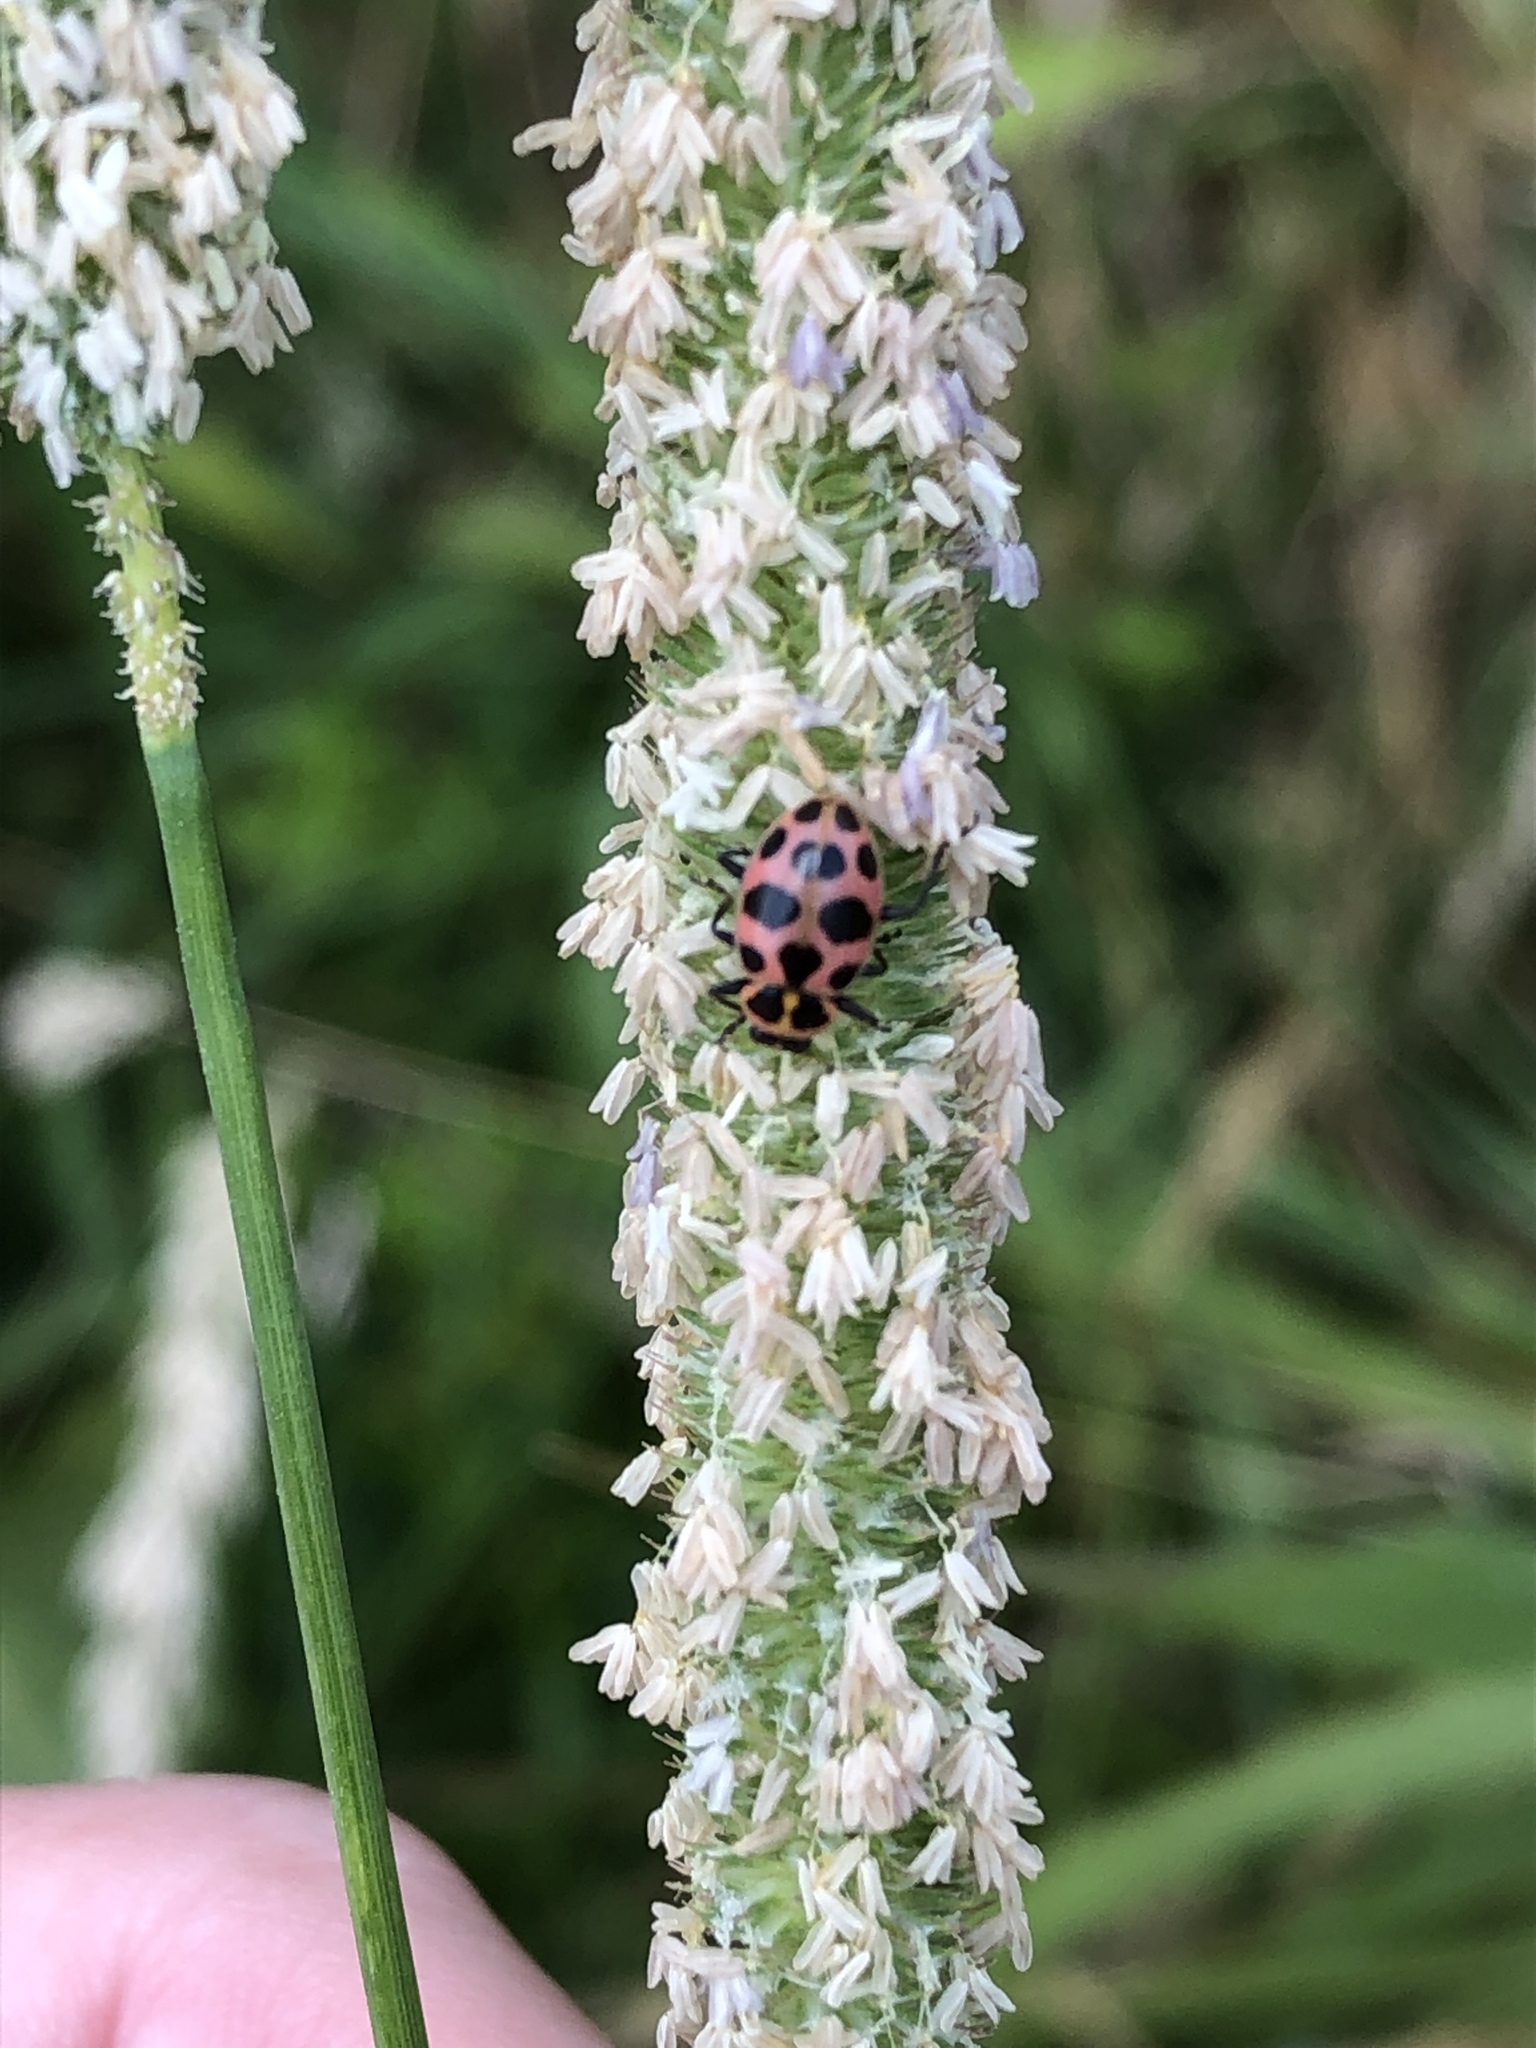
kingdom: Animalia
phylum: Arthropoda
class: Insecta
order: Coleoptera
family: Coccinellidae
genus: Coleomegilla
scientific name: Coleomegilla maculata
